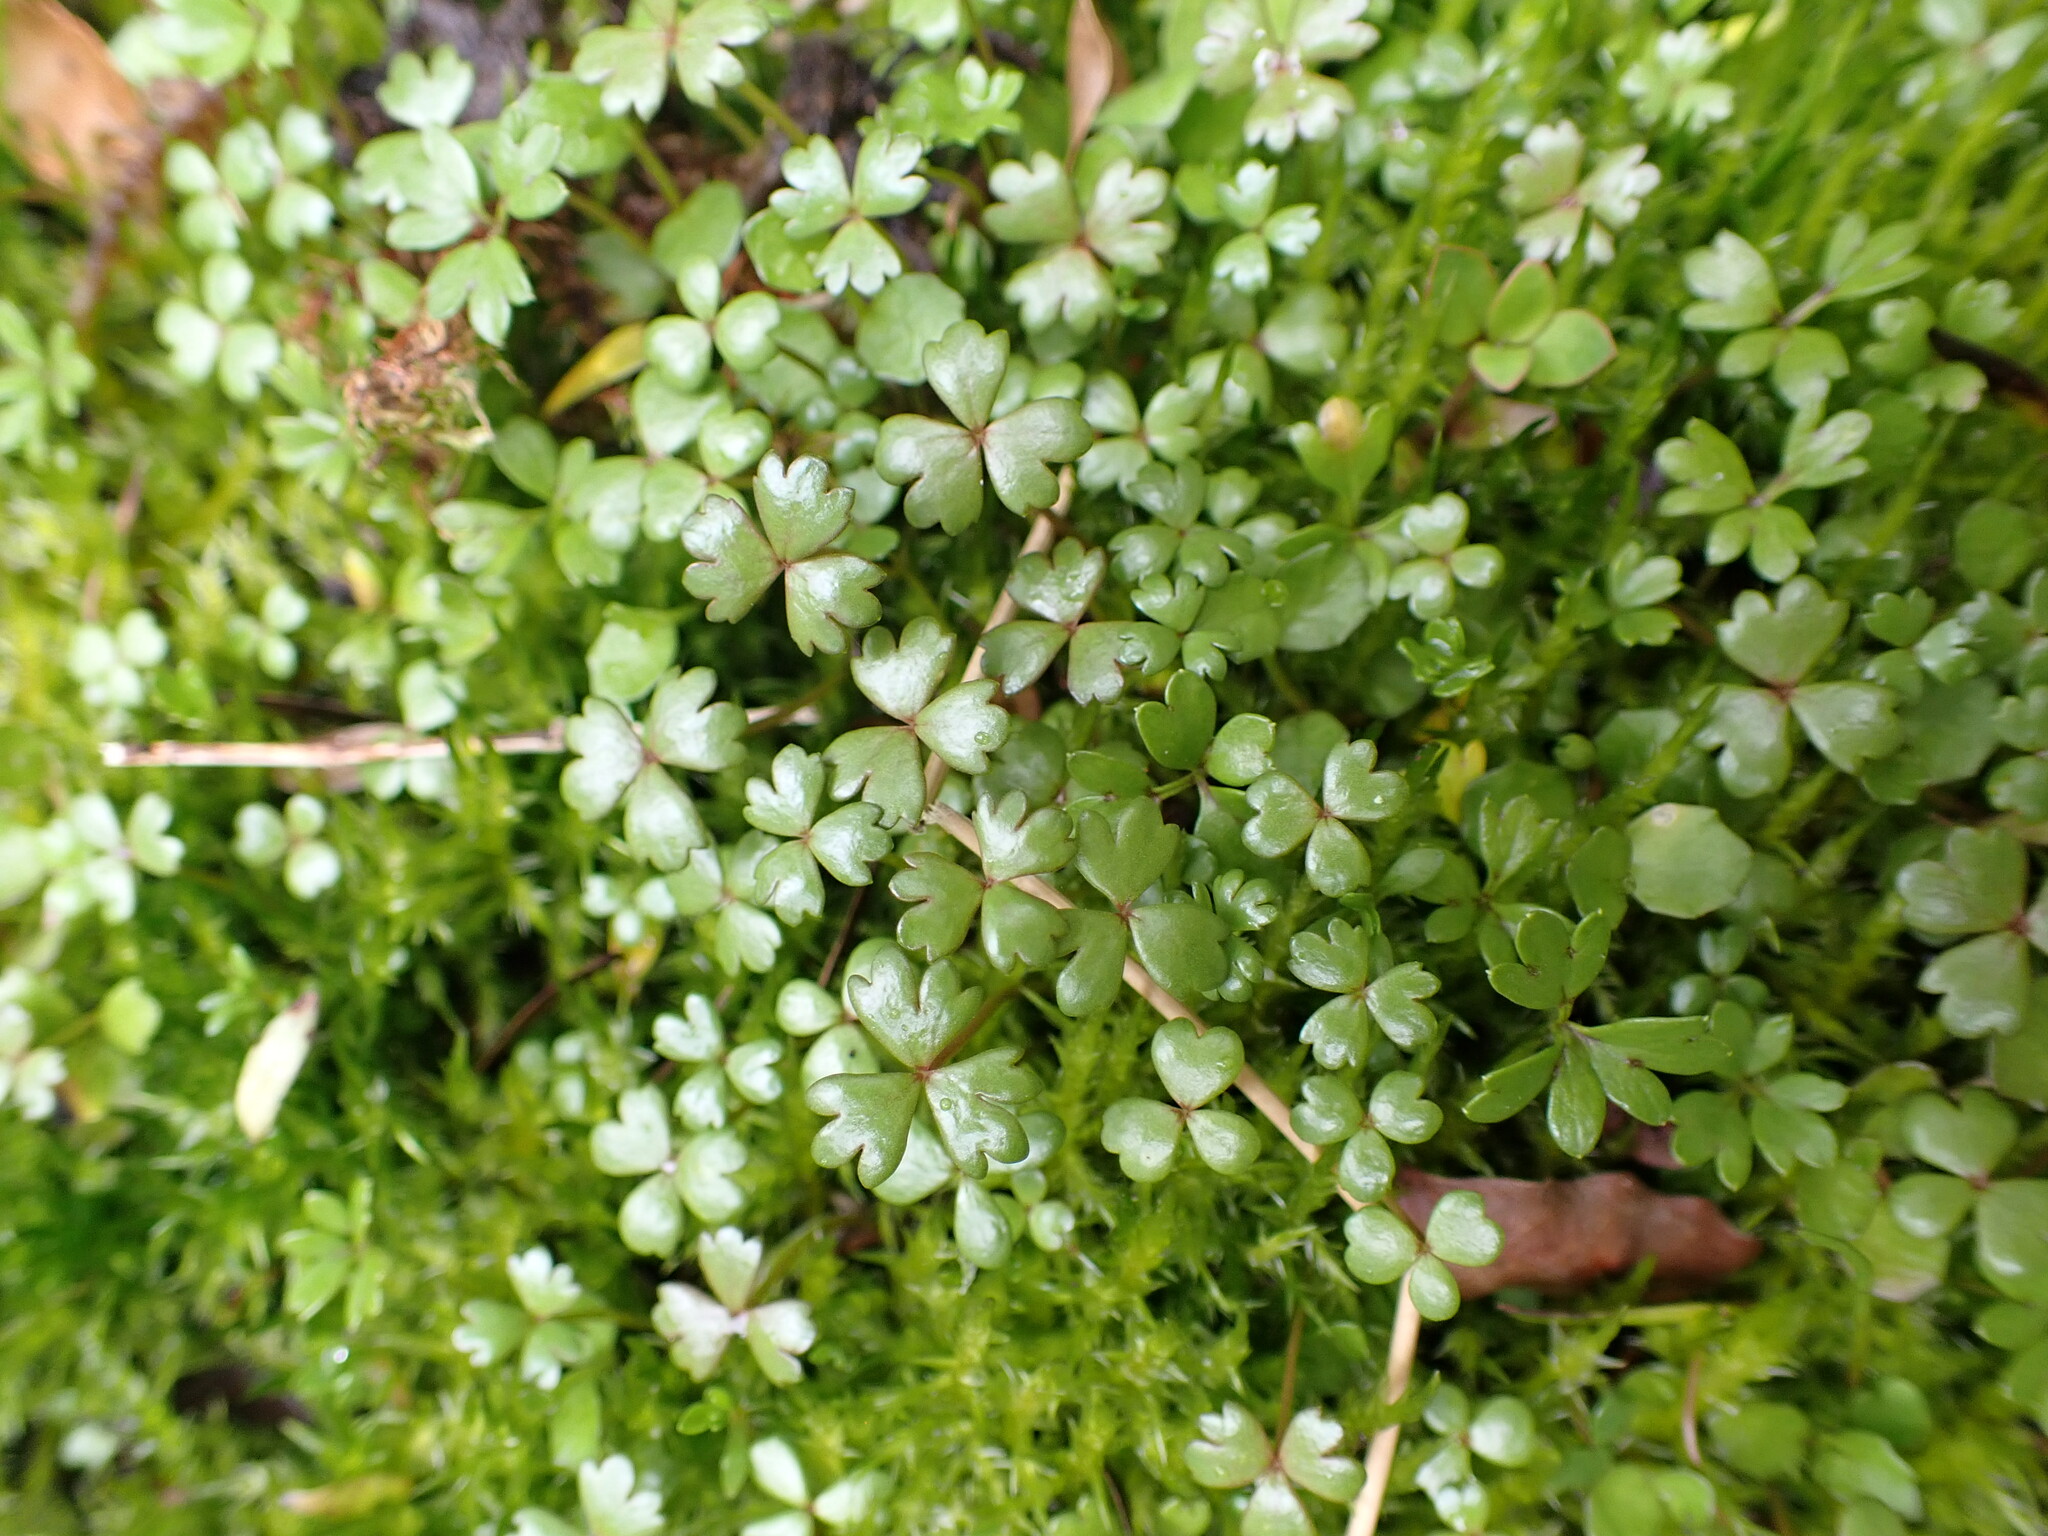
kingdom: Plantae
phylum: Tracheophyta
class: Magnoliopsida
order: Apiales
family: Araliaceae
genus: Hydrocotyle
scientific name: Hydrocotyle sulcata
